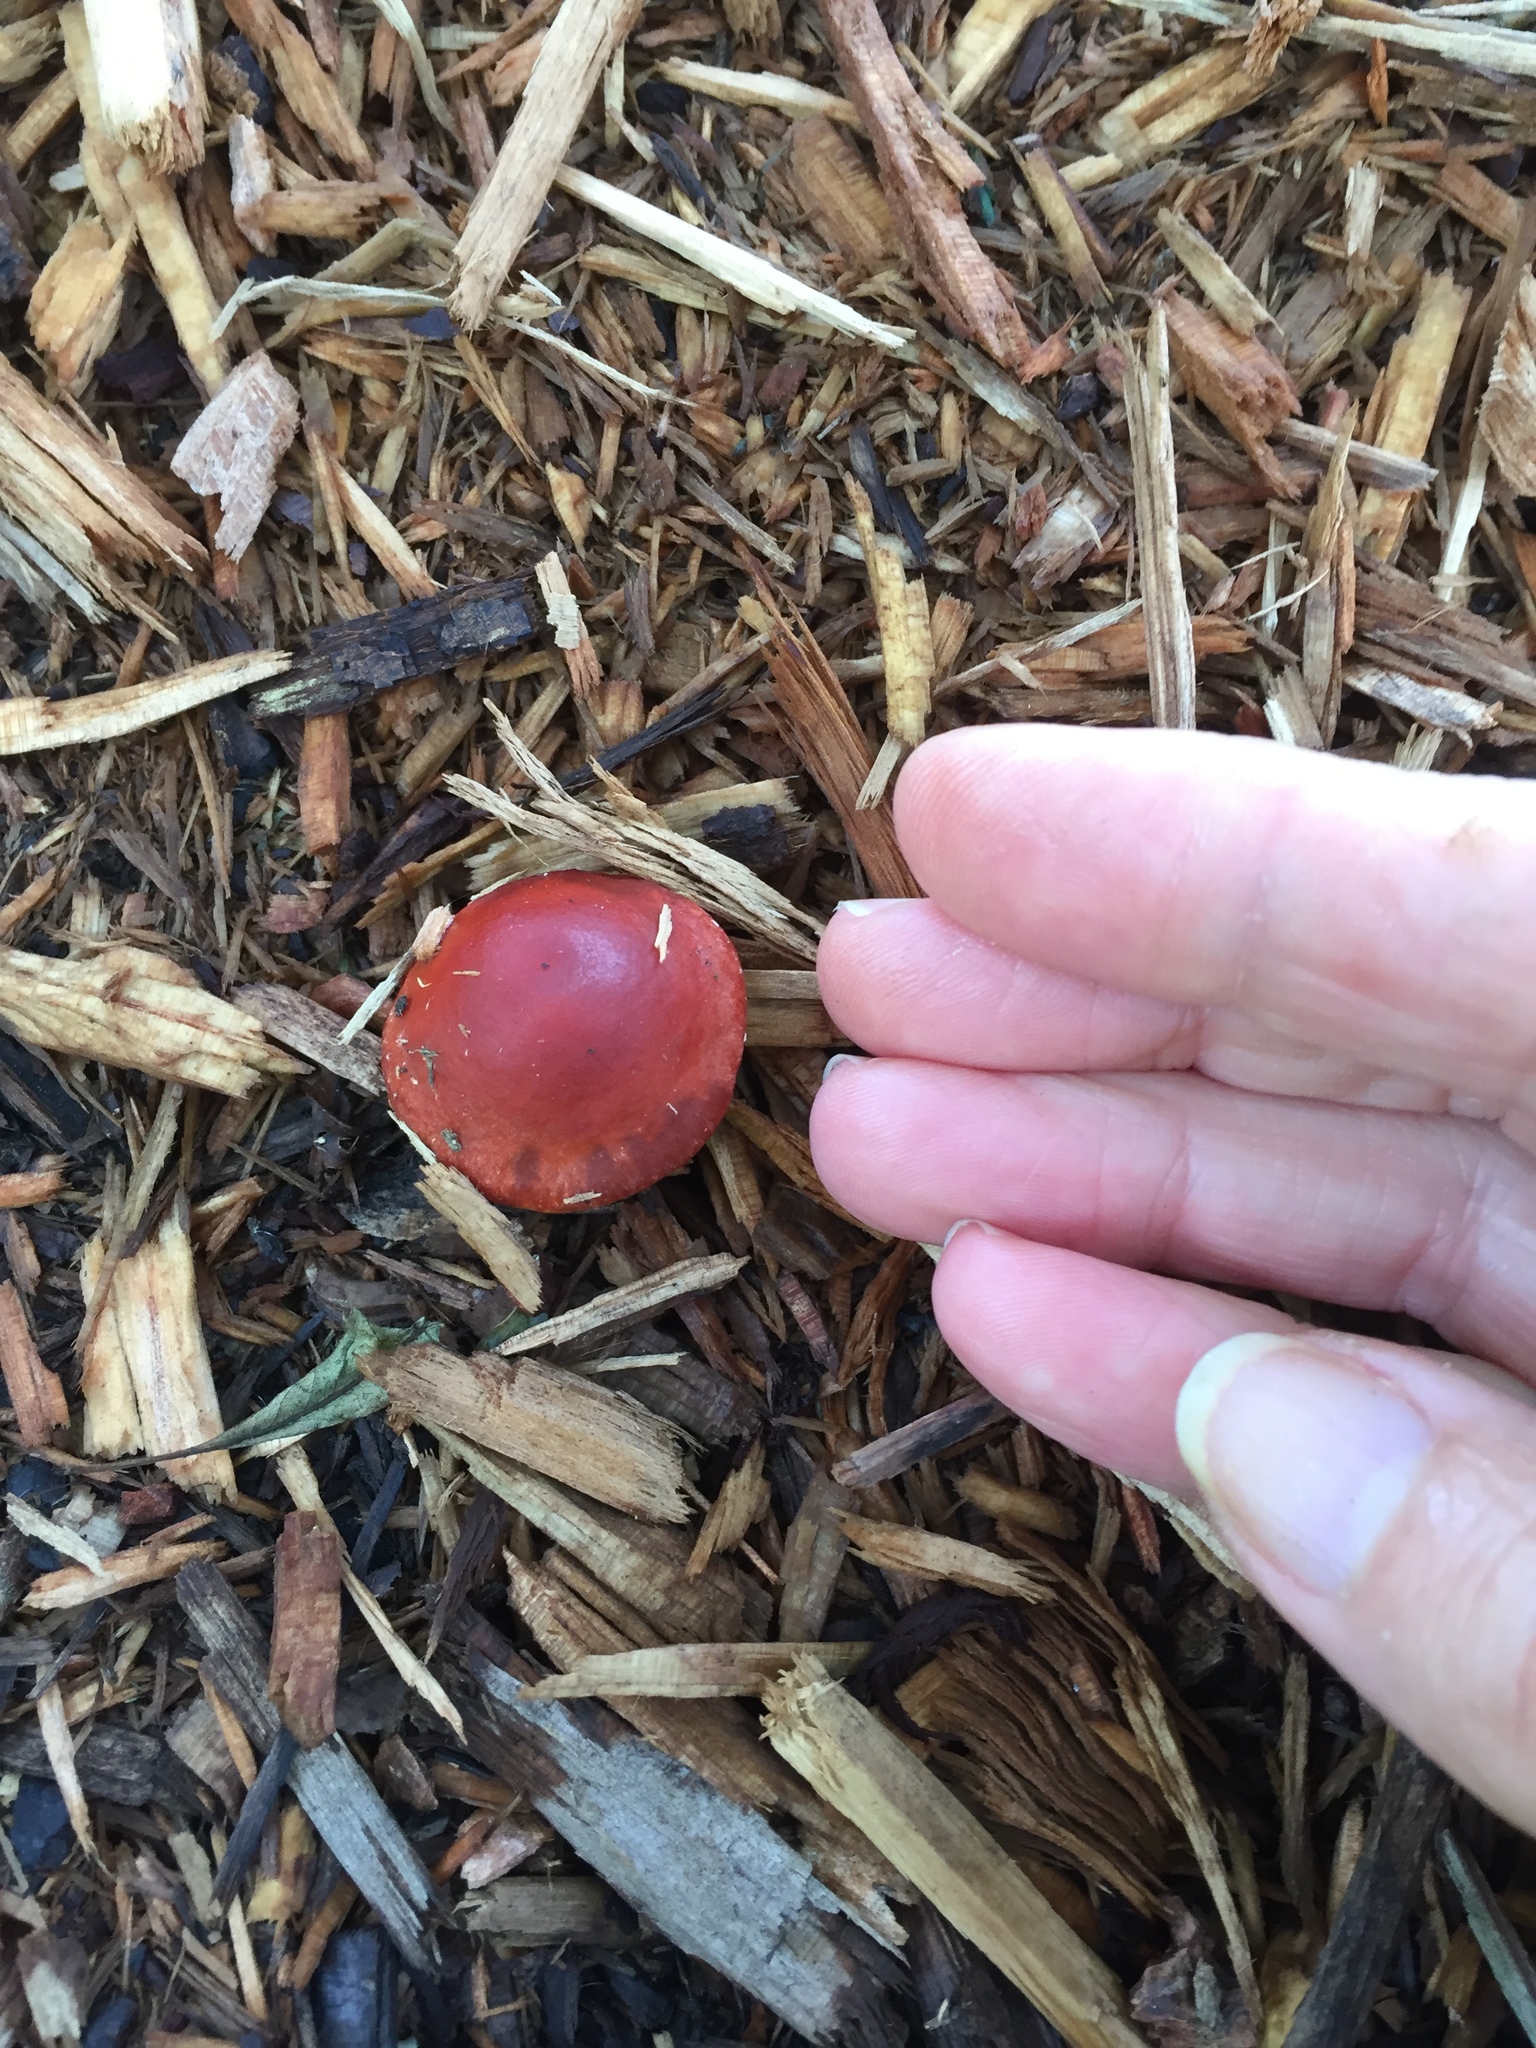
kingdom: Fungi
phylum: Basidiomycota
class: Agaricomycetes
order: Agaricales
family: Strophariaceae
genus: Leratiomyces
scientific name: Leratiomyces ceres
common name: Redlead roundhead
